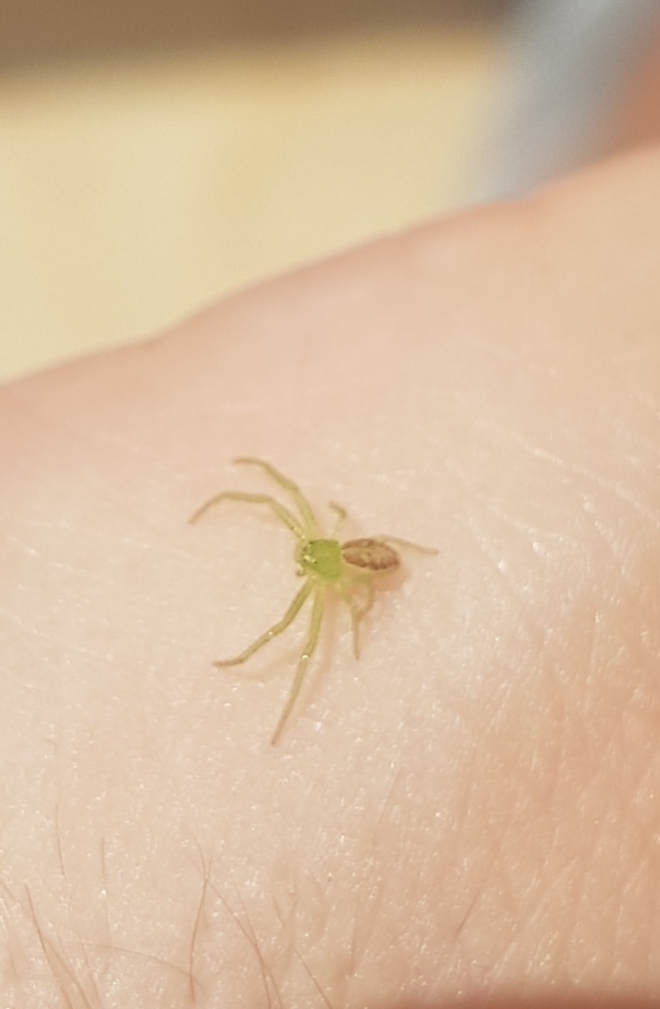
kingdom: Animalia
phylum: Arthropoda
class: Arachnida
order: Araneae
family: Thomisidae
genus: Diaea
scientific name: Diaea dorsata
